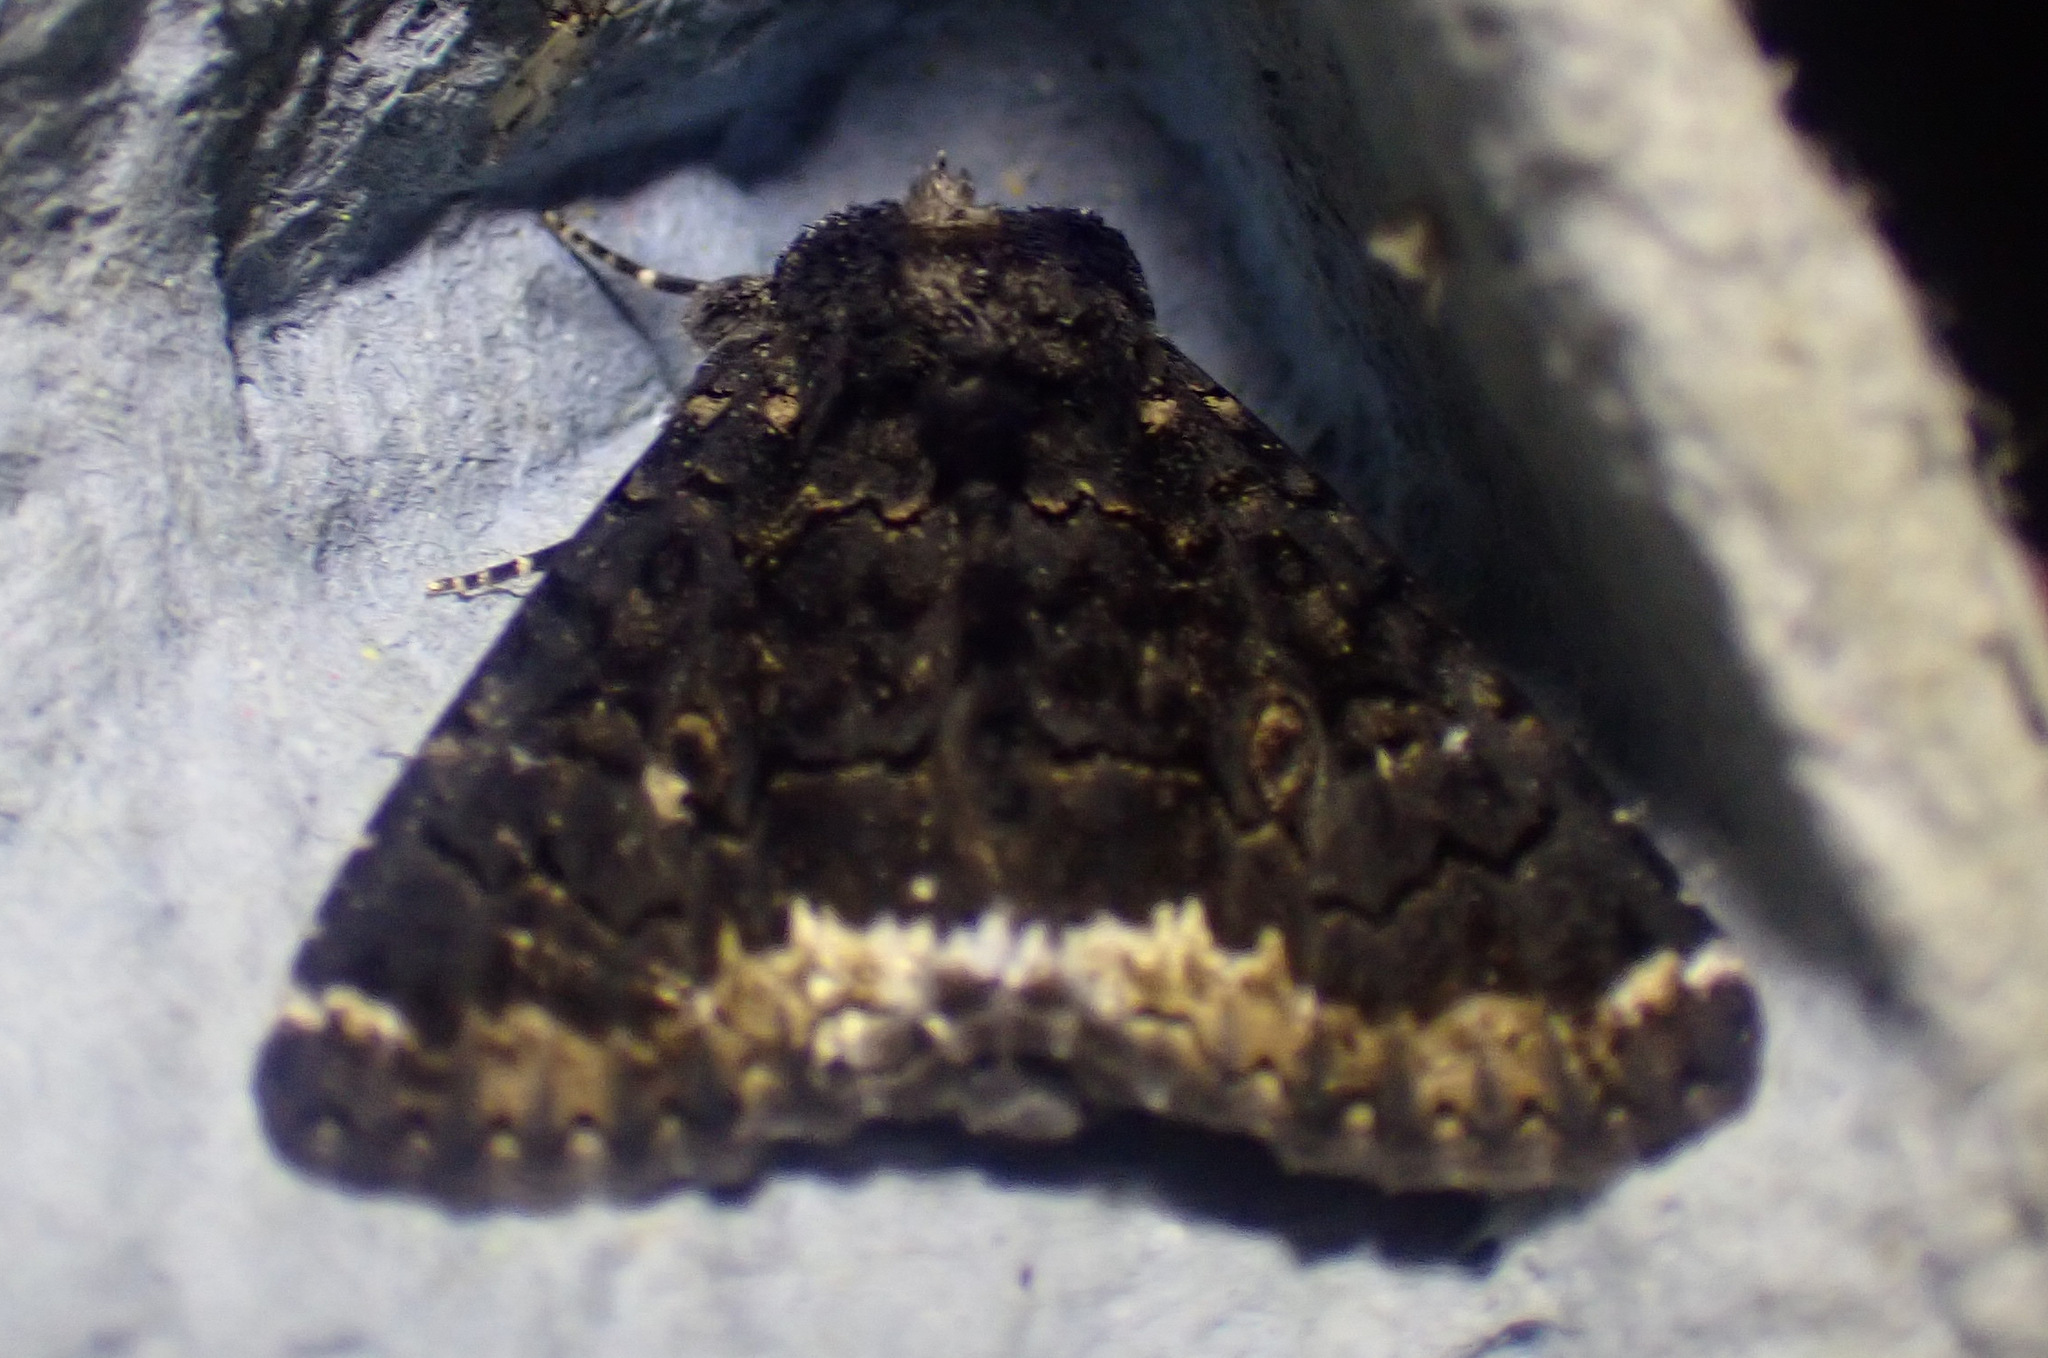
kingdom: Animalia
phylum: Arthropoda
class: Insecta
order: Lepidoptera
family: Erebidae
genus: Catephia
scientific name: Catephia alchymista
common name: Alchymist
